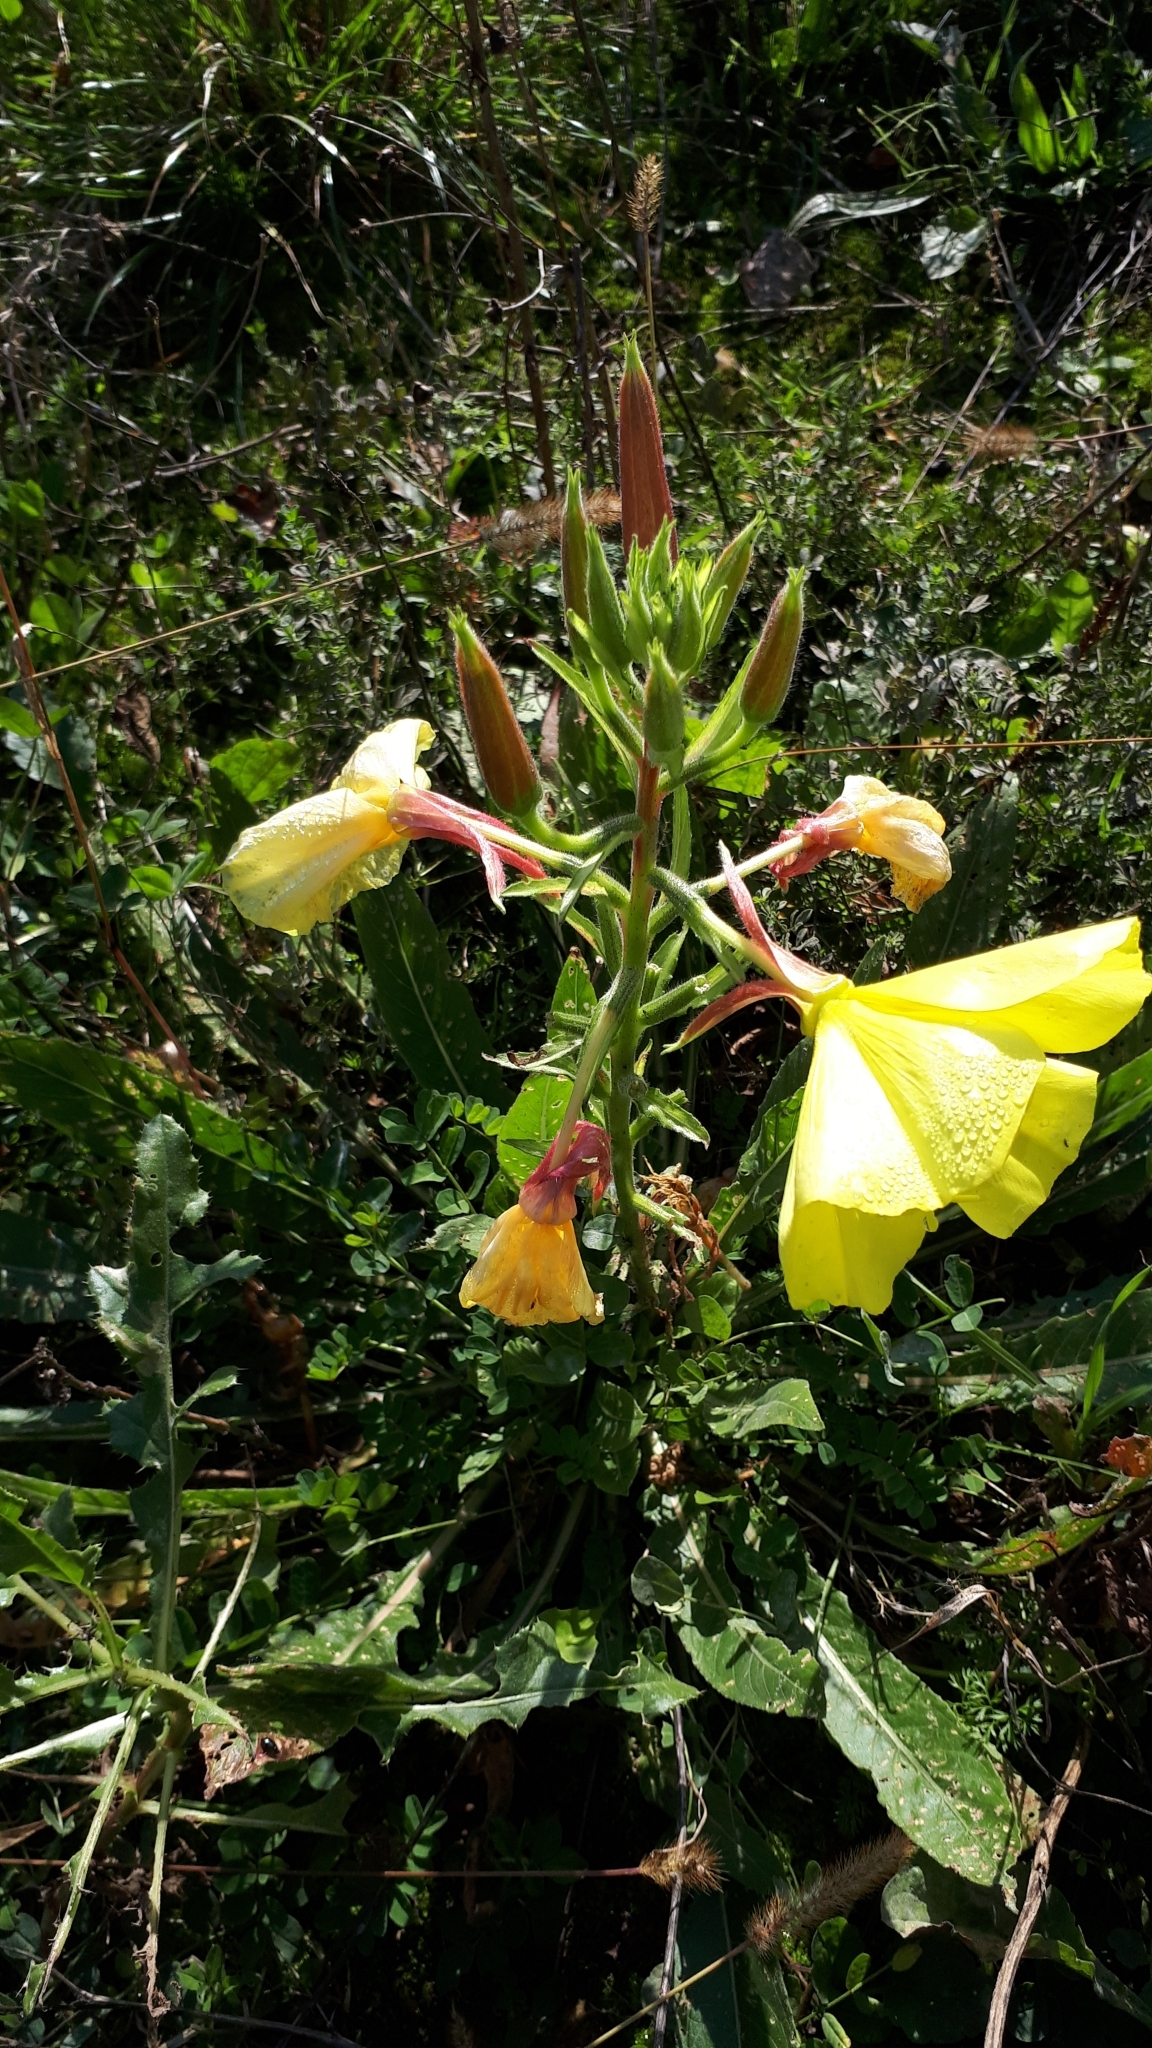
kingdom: Plantae
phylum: Tracheophyta
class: Magnoliopsida
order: Myrtales
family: Onagraceae
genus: Oenothera
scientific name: Oenothera glazioviana
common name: Large-flowered evening-primrose
